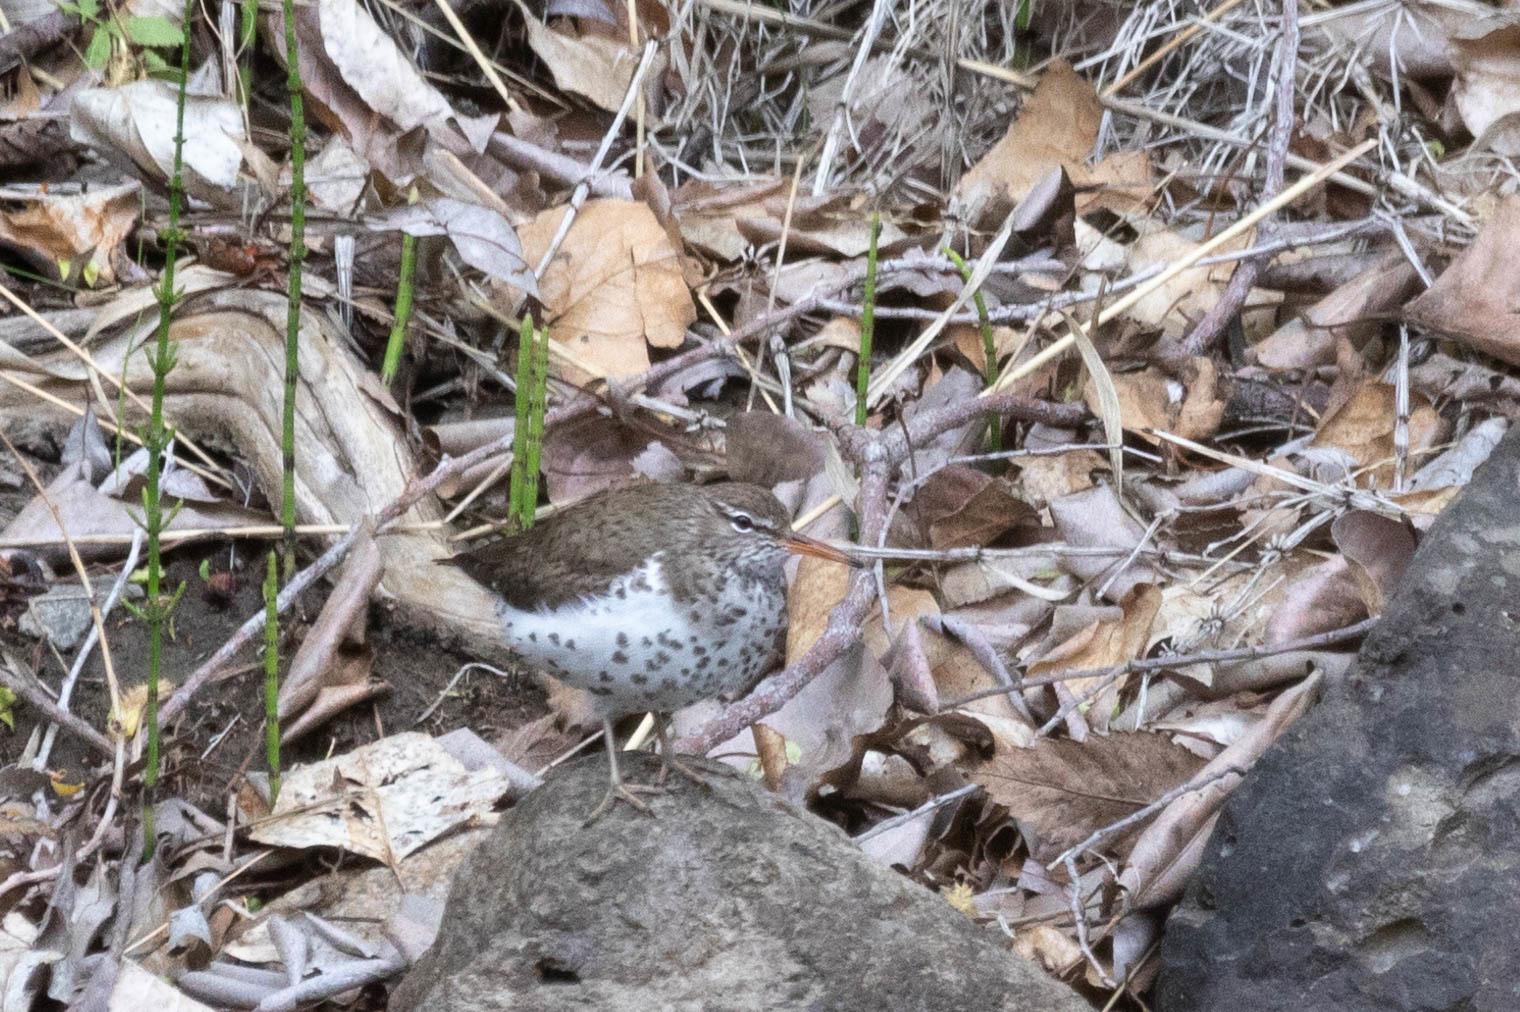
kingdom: Animalia
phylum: Chordata
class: Aves
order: Charadriiformes
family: Scolopacidae
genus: Actitis
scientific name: Actitis macularius
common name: Spotted sandpiper
